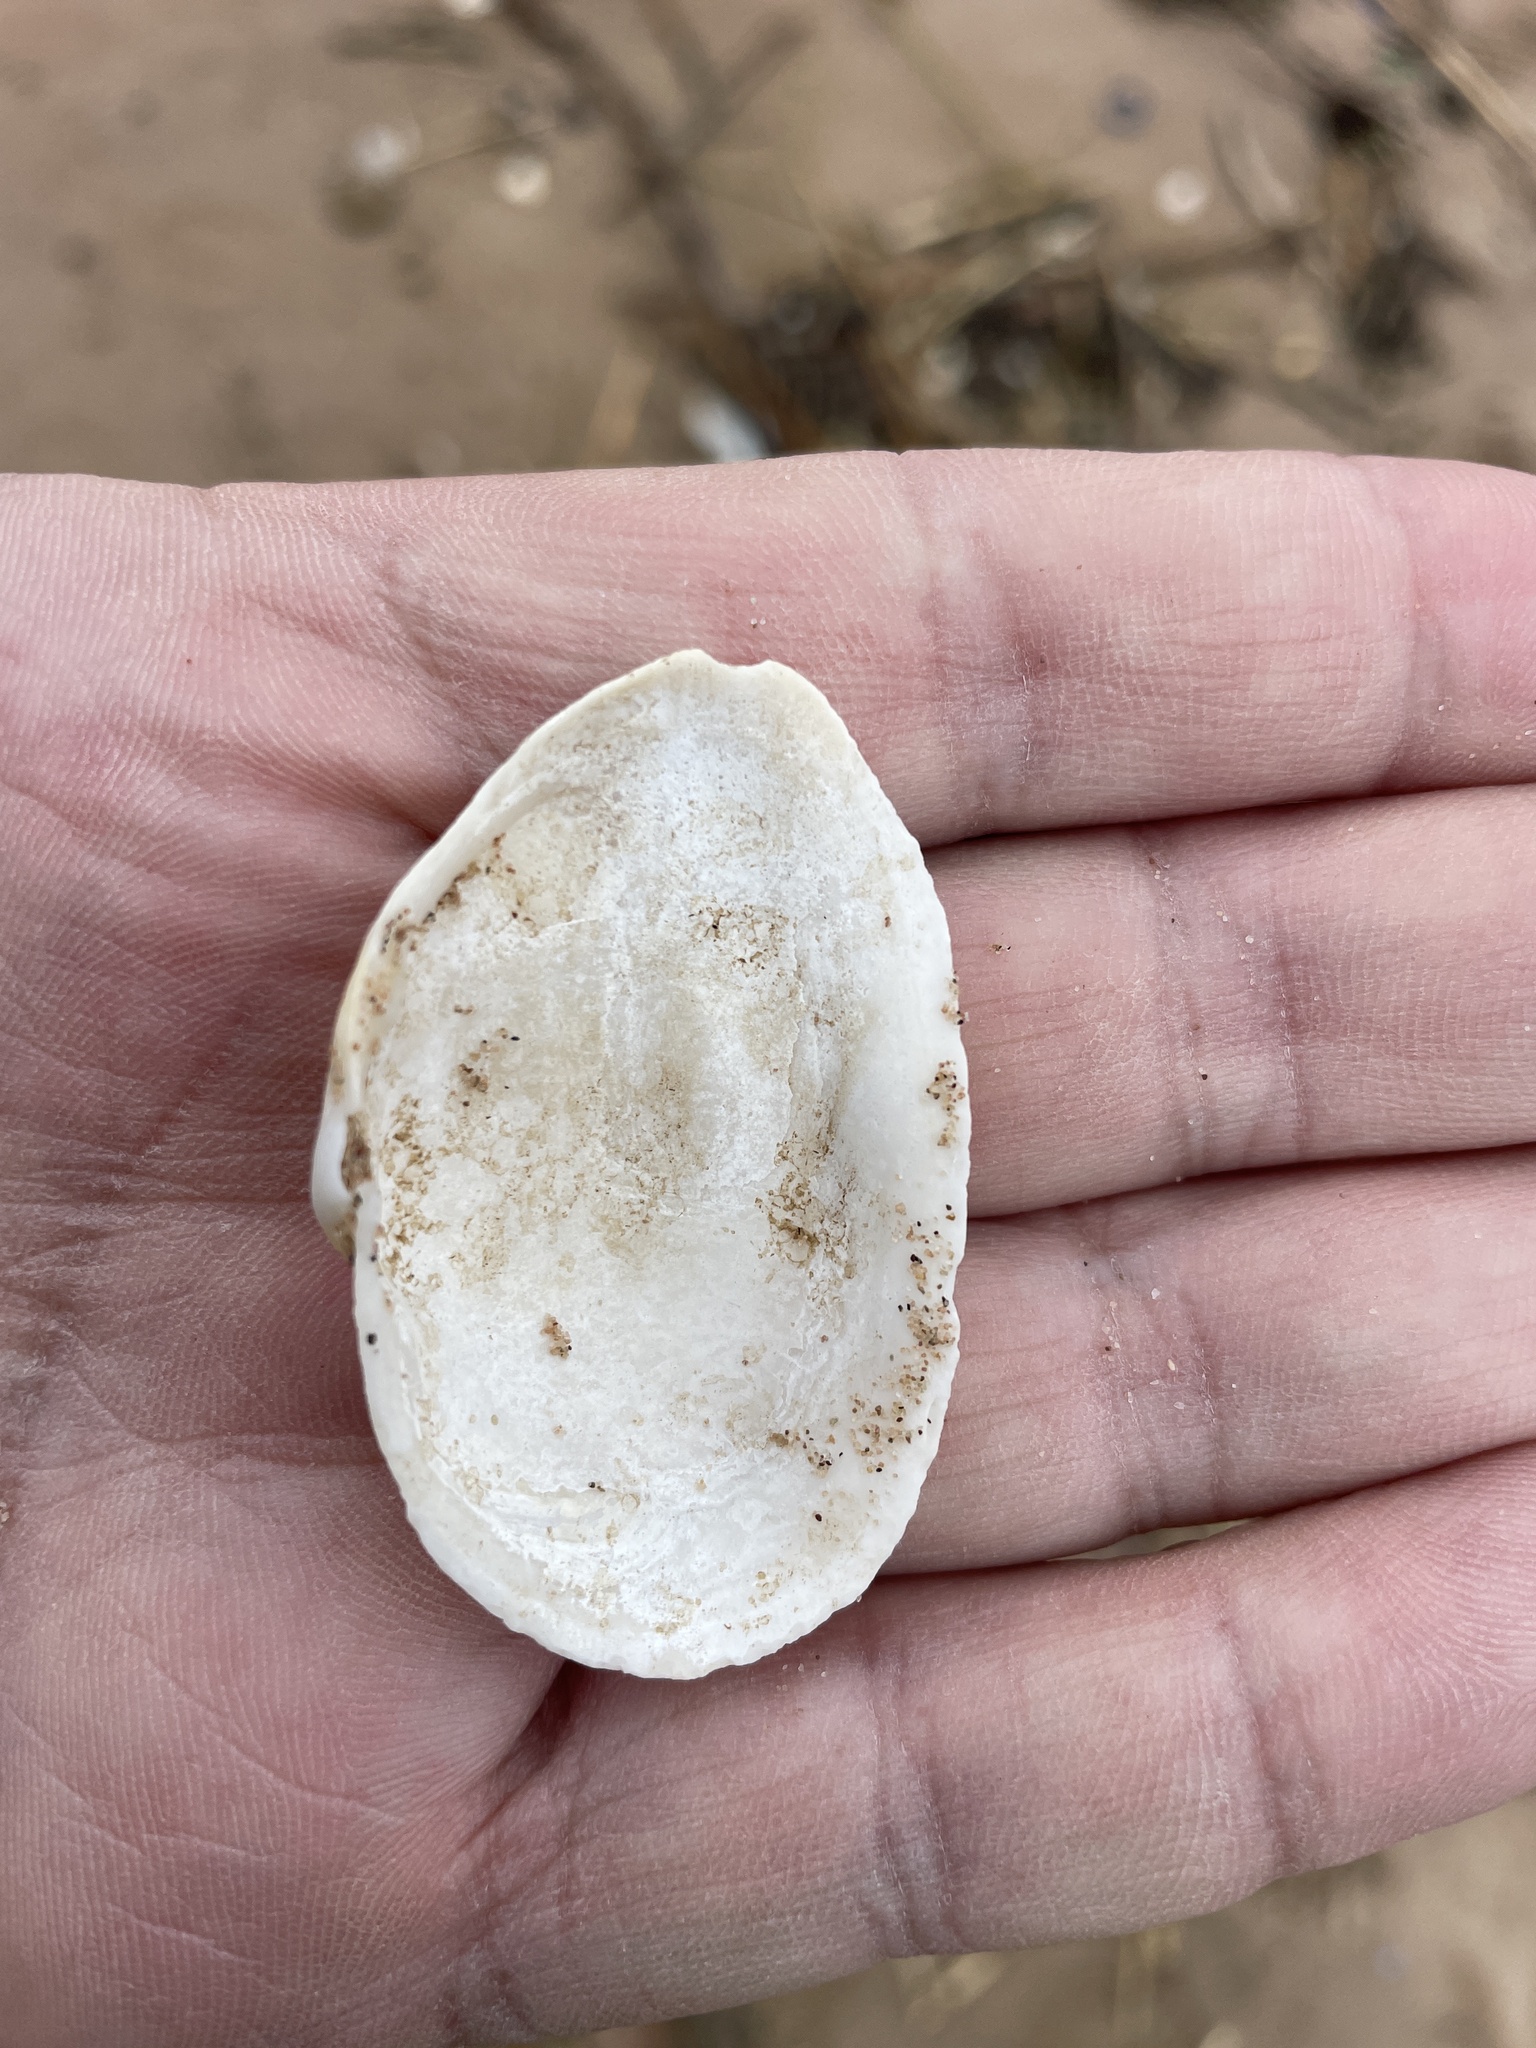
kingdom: Animalia
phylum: Mollusca
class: Bivalvia
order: Myida
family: Myidae
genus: Mya
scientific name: Mya arenaria
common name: Soft-shelled clam
